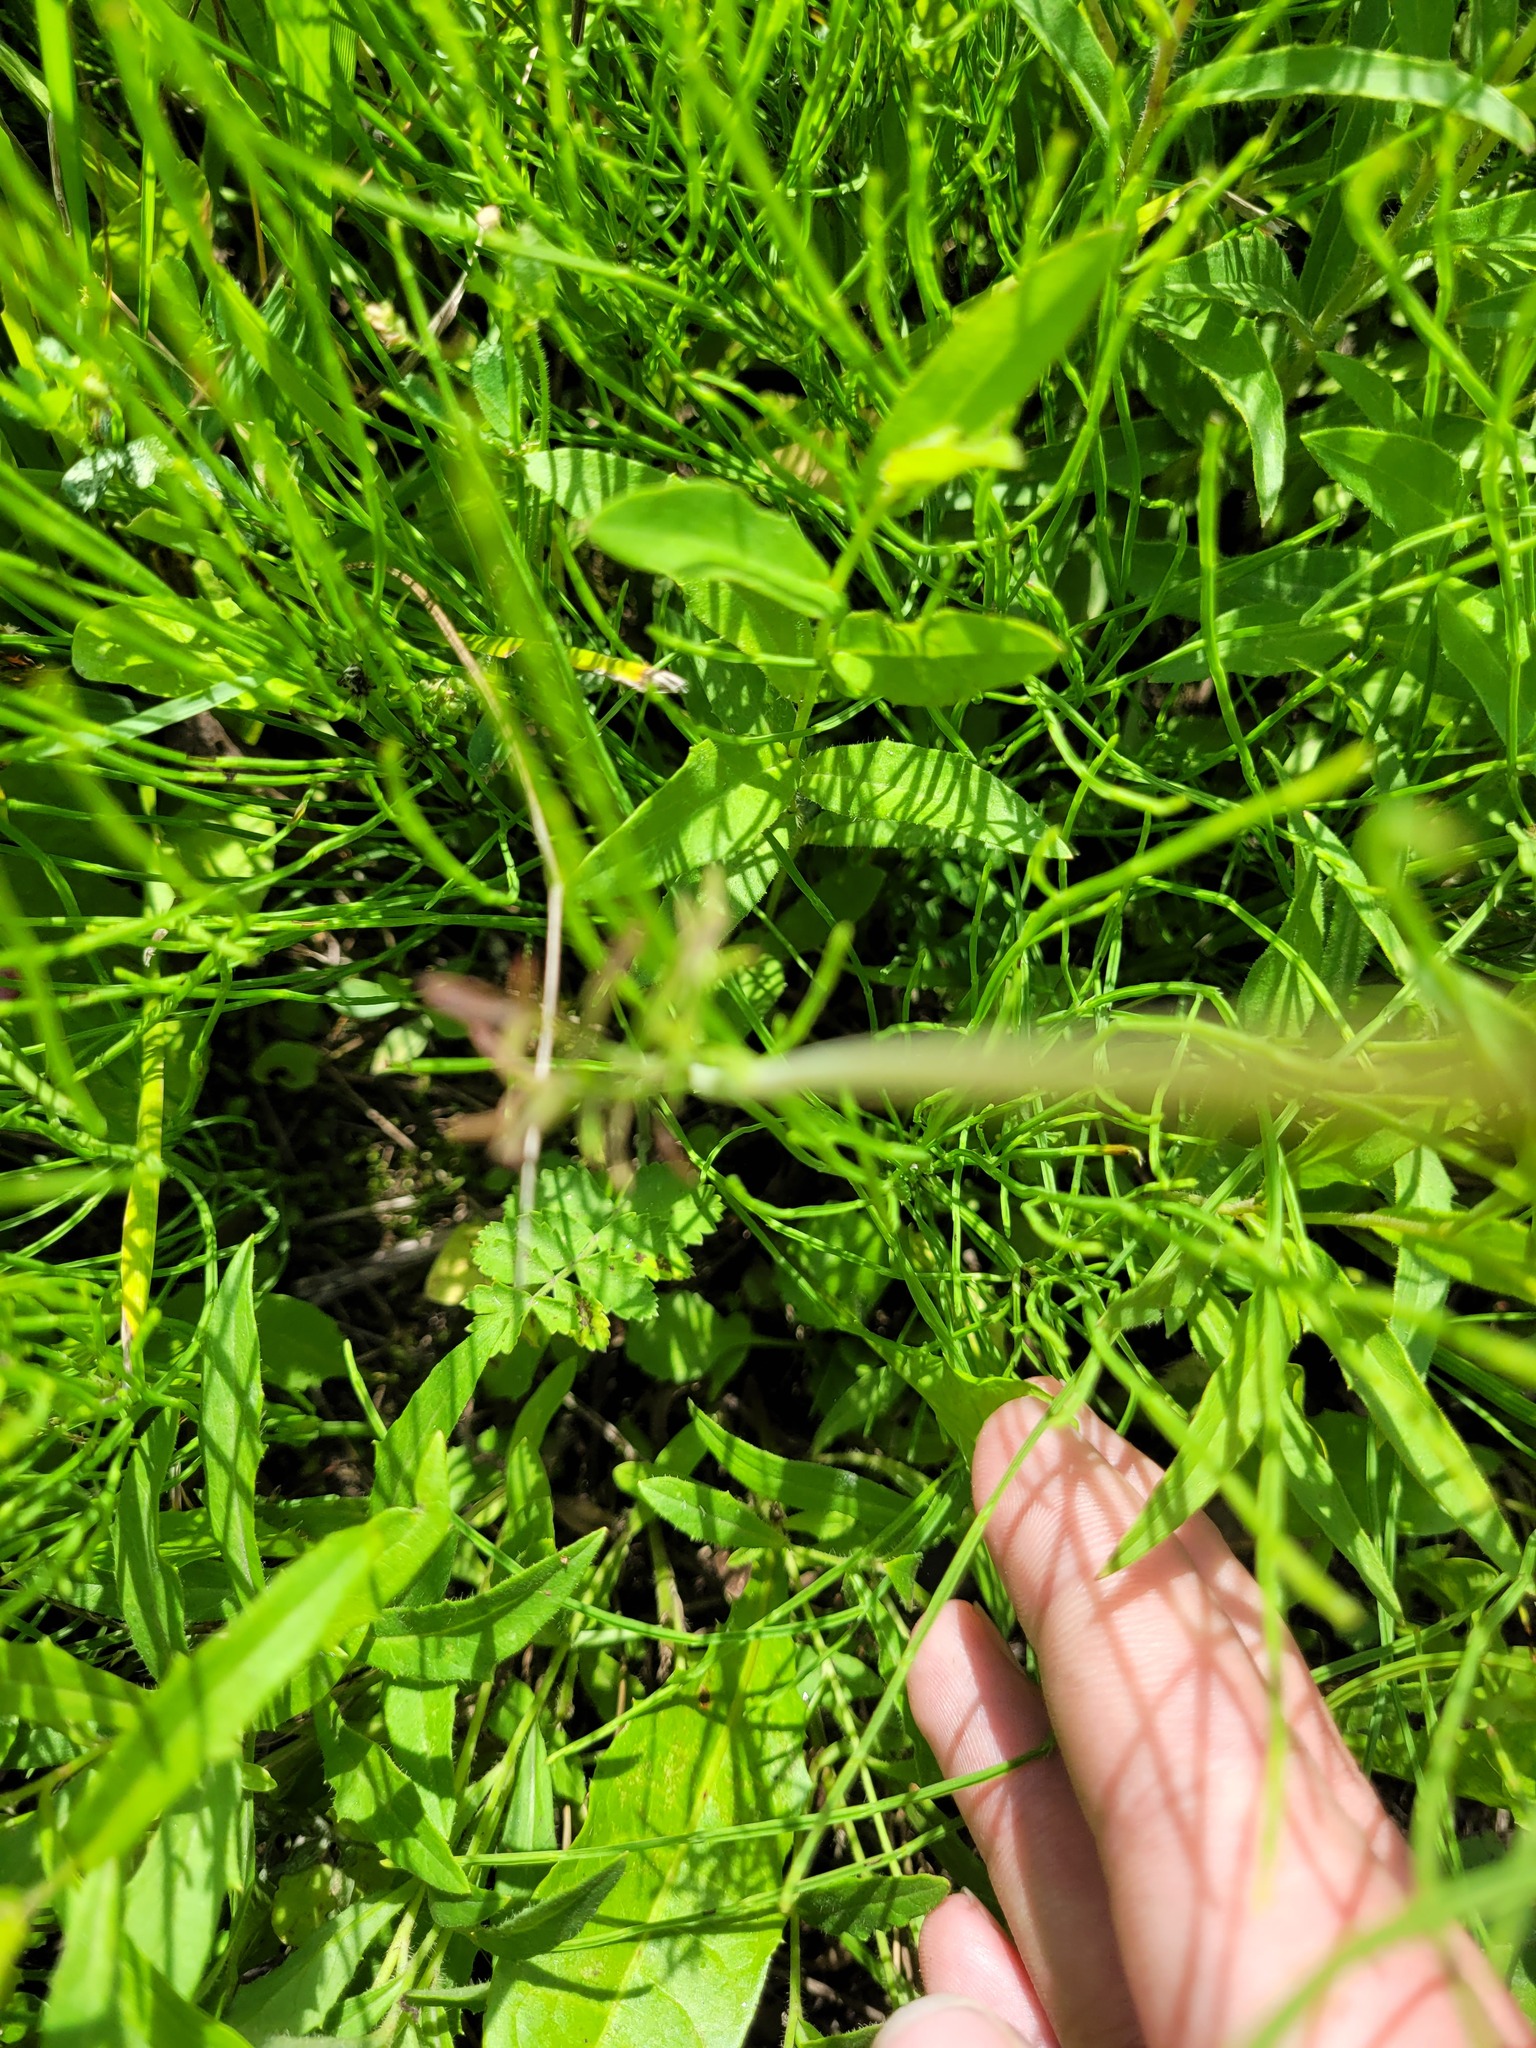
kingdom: Plantae
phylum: Tracheophyta
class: Magnoliopsida
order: Apiales
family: Apiaceae
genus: Pimpinella
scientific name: Pimpinella saxifraga
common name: Burnet-saxifrage
